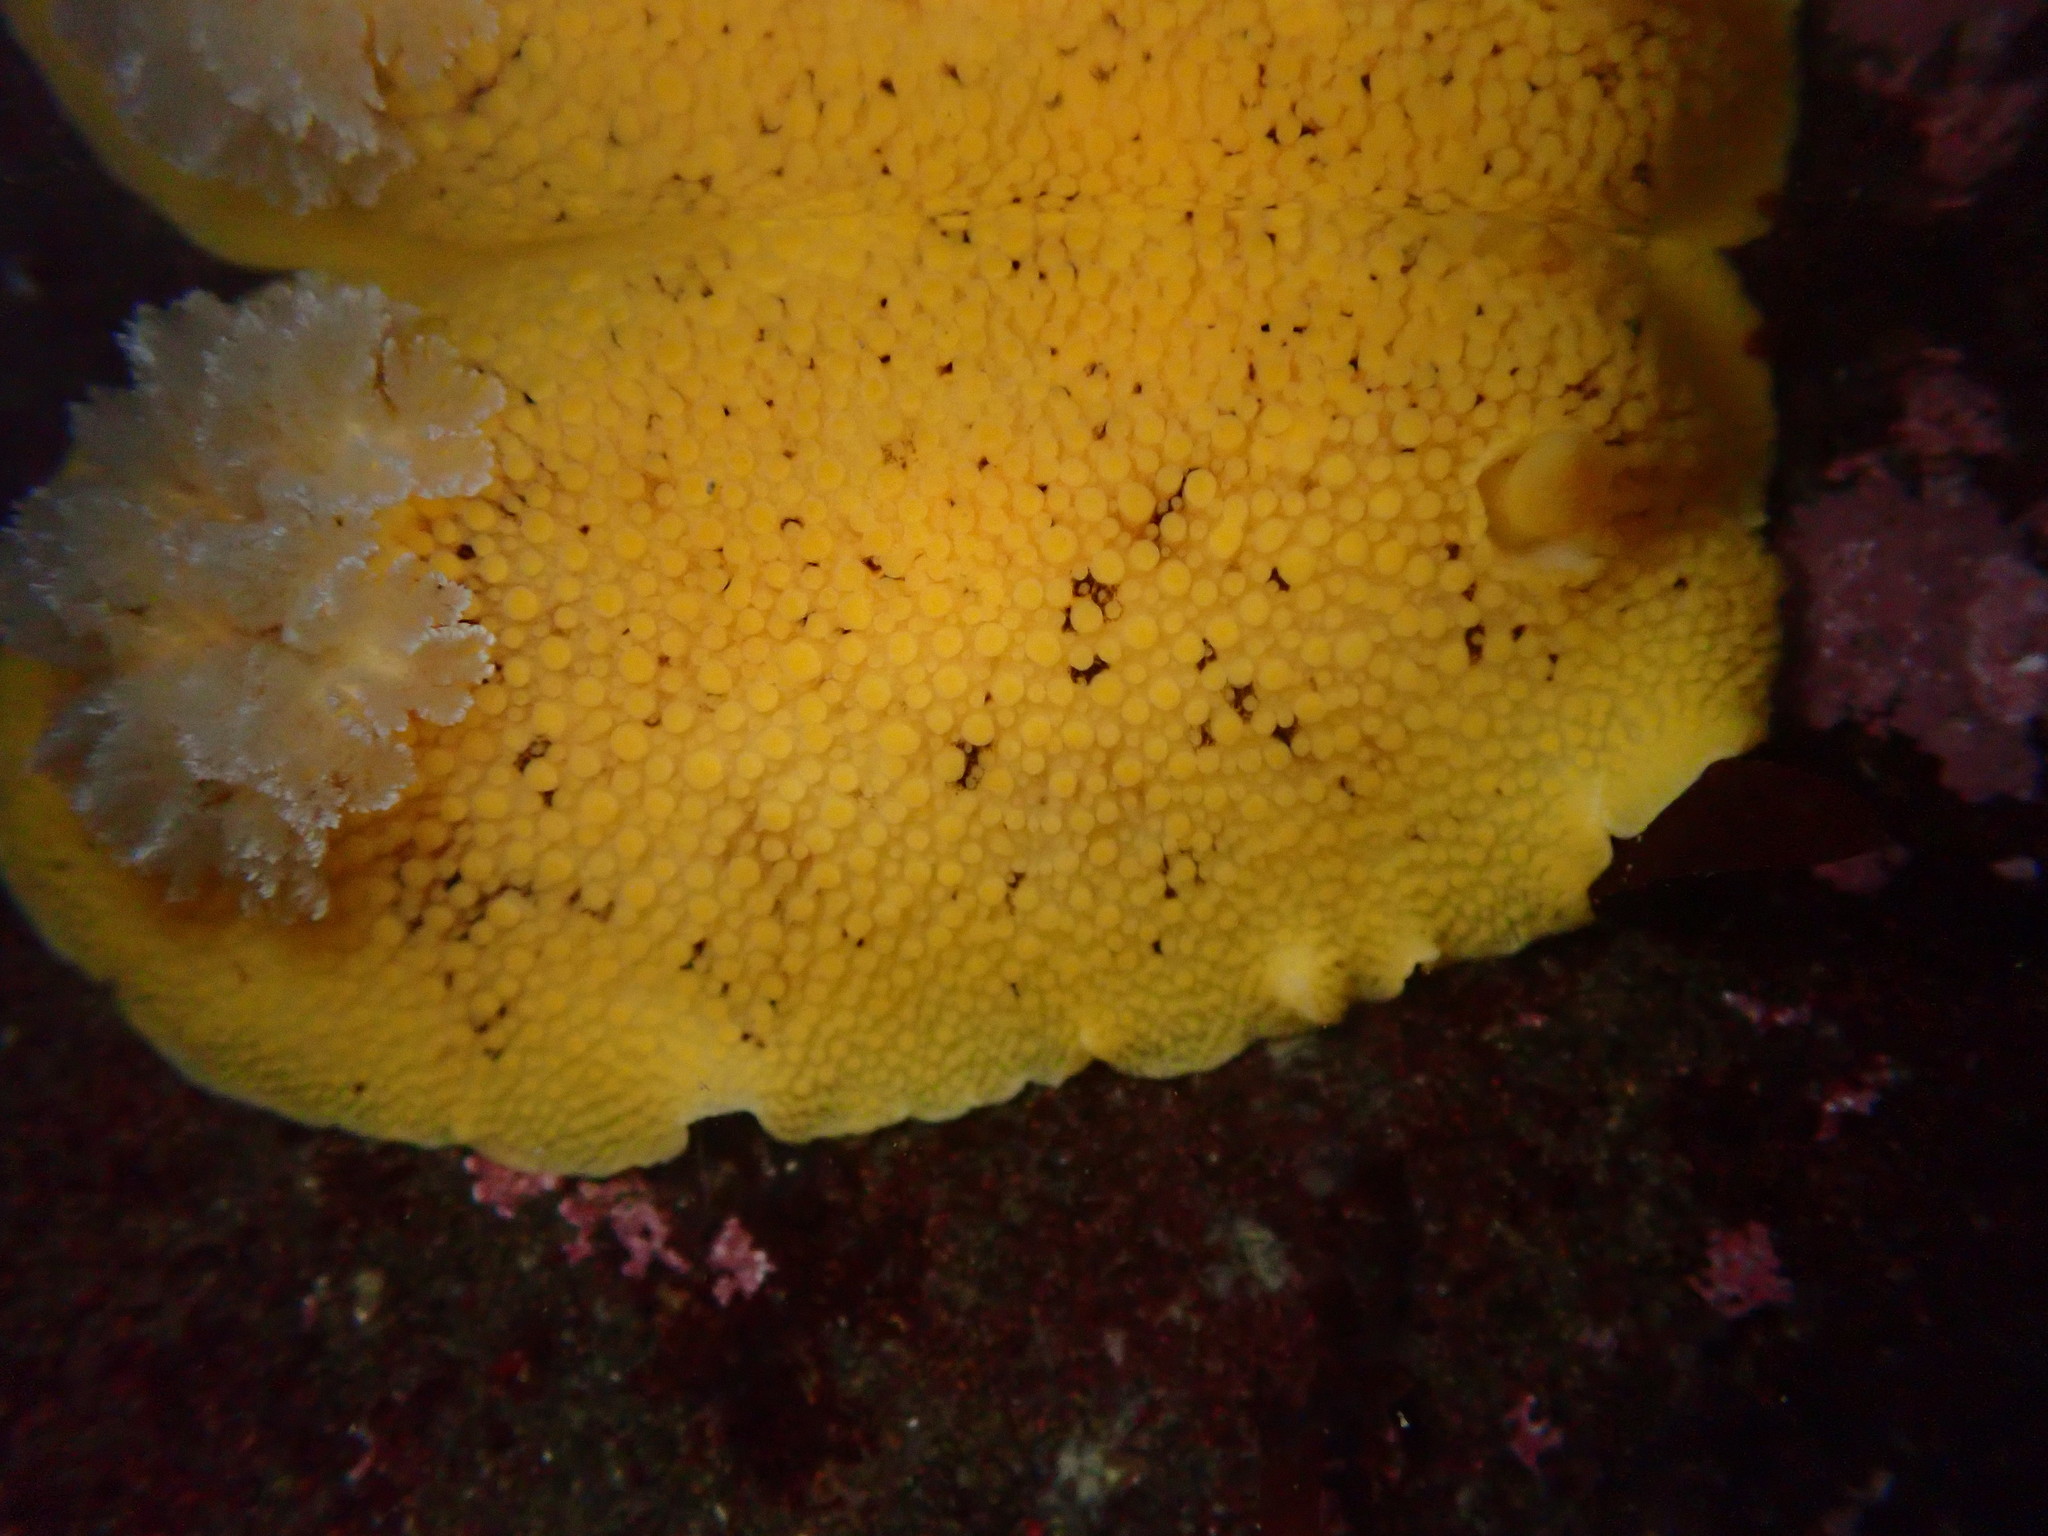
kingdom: Animalia
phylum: Mollusca
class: Gastropoda
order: Nudibranchia
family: Discodorididae
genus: Peltodoris
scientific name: Peltodoris nobilis
